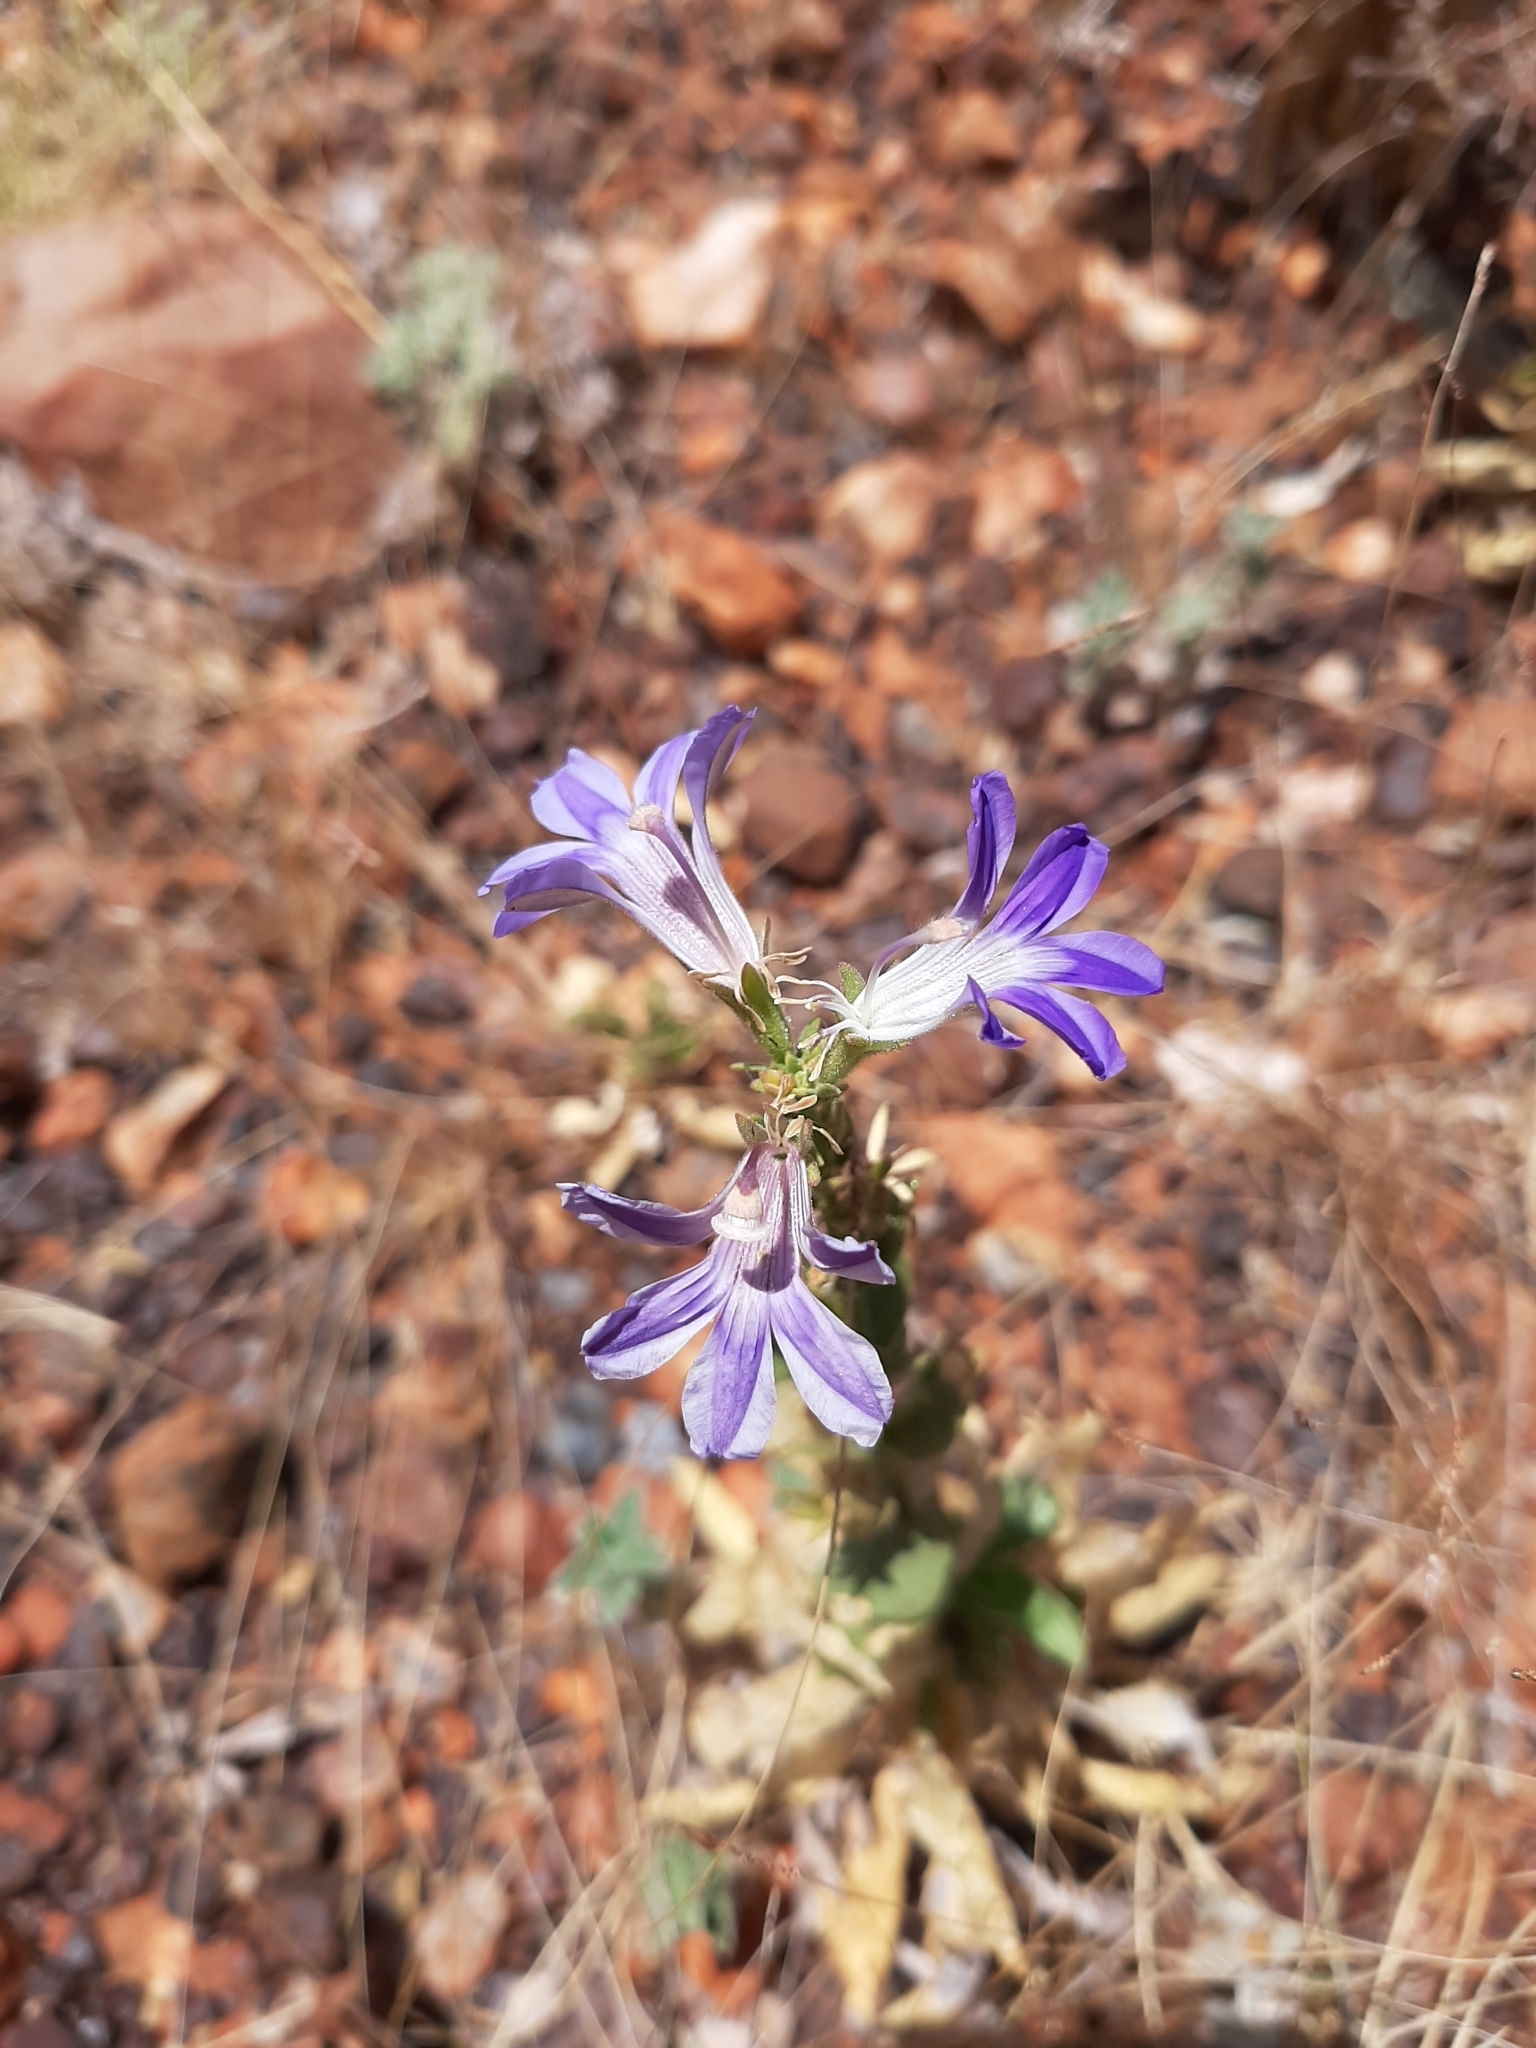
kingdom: Plantae
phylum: Tracheophyta
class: Magnoliopsida
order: Asterales
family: Goodeniaceae
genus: Goodenia
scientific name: Goodenia scaevolina
